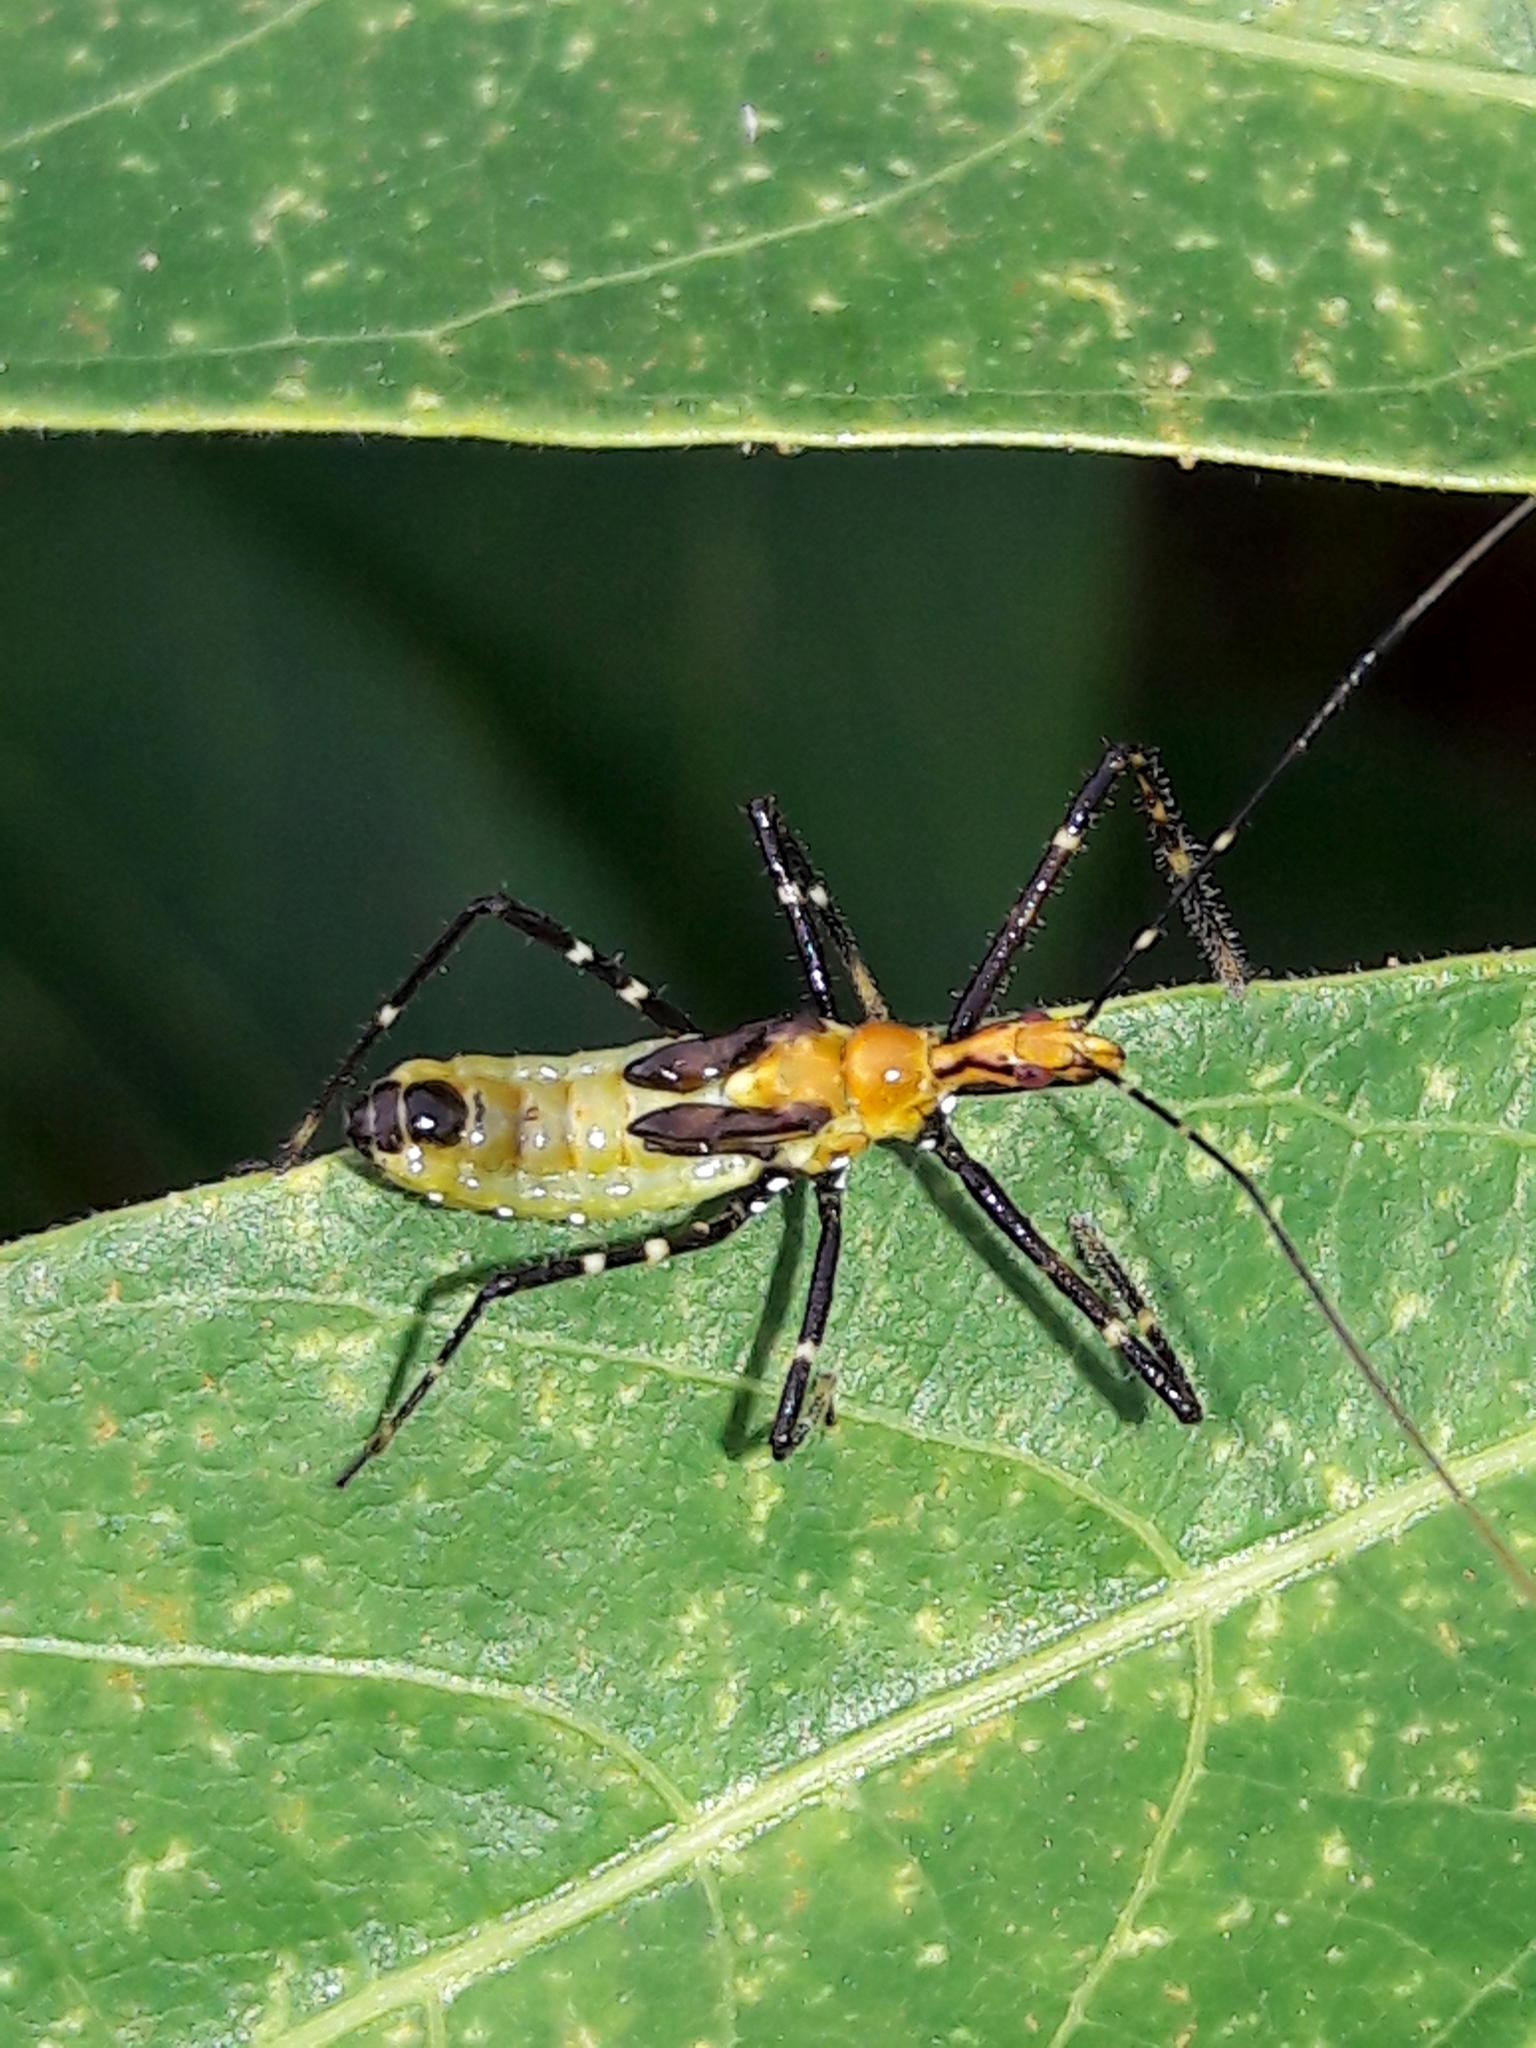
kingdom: Animalia
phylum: Arthropoda
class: Insecta
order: Hemiptera
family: Reduviidae
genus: Zelus
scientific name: Zelus laticornis
